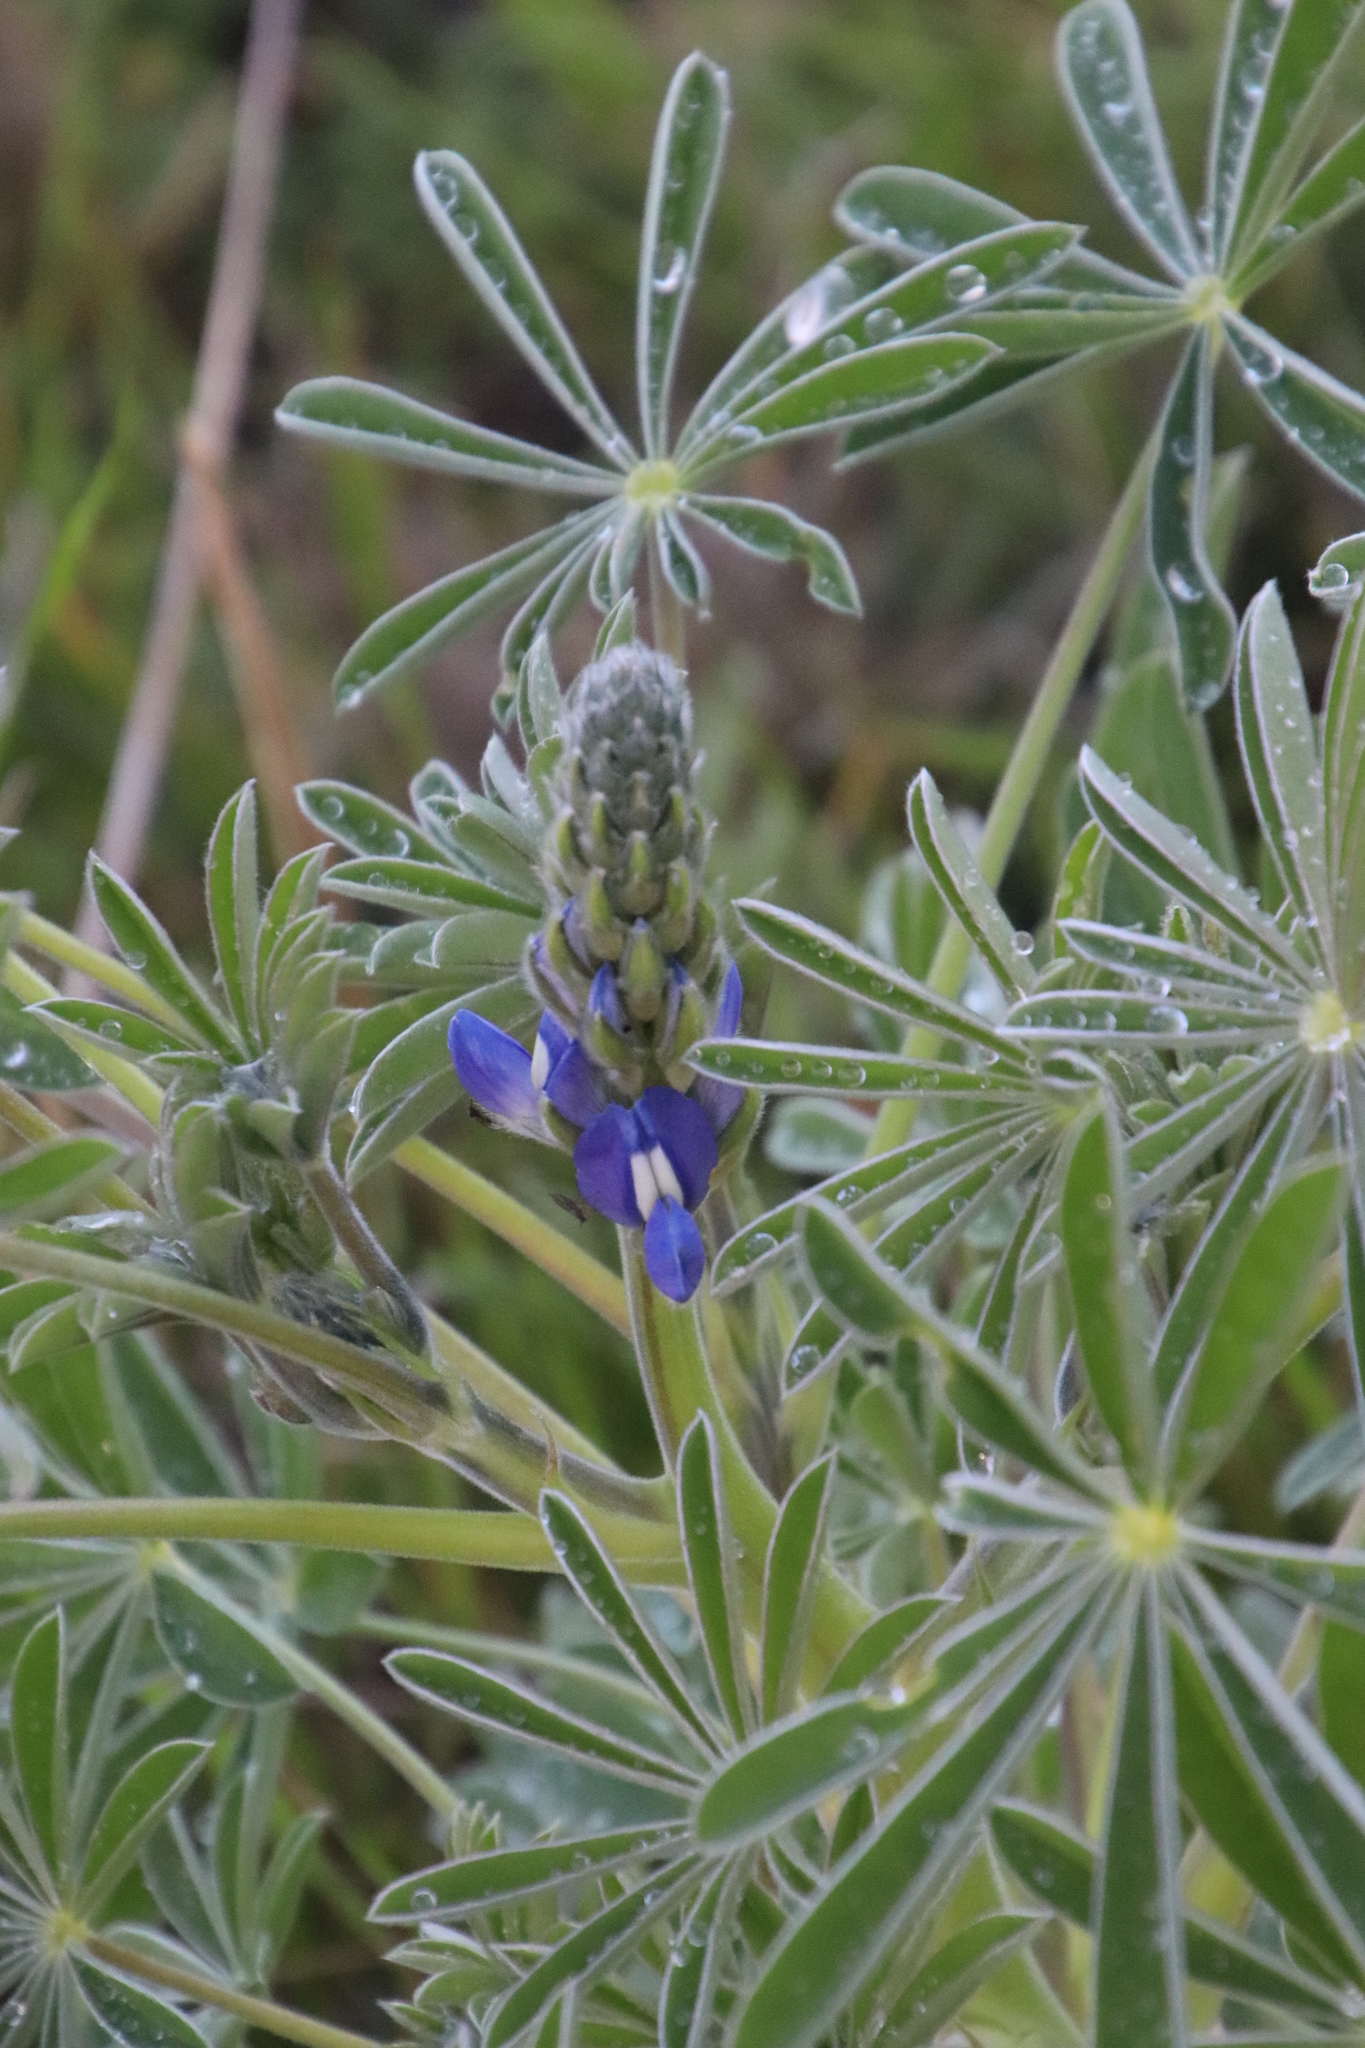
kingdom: Plantae
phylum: Tracheophyta
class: Magnoliopsida
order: Fabales
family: Fabaceae
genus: Lupinus
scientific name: Lupinus cosentinii
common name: Hairy blue lupin
